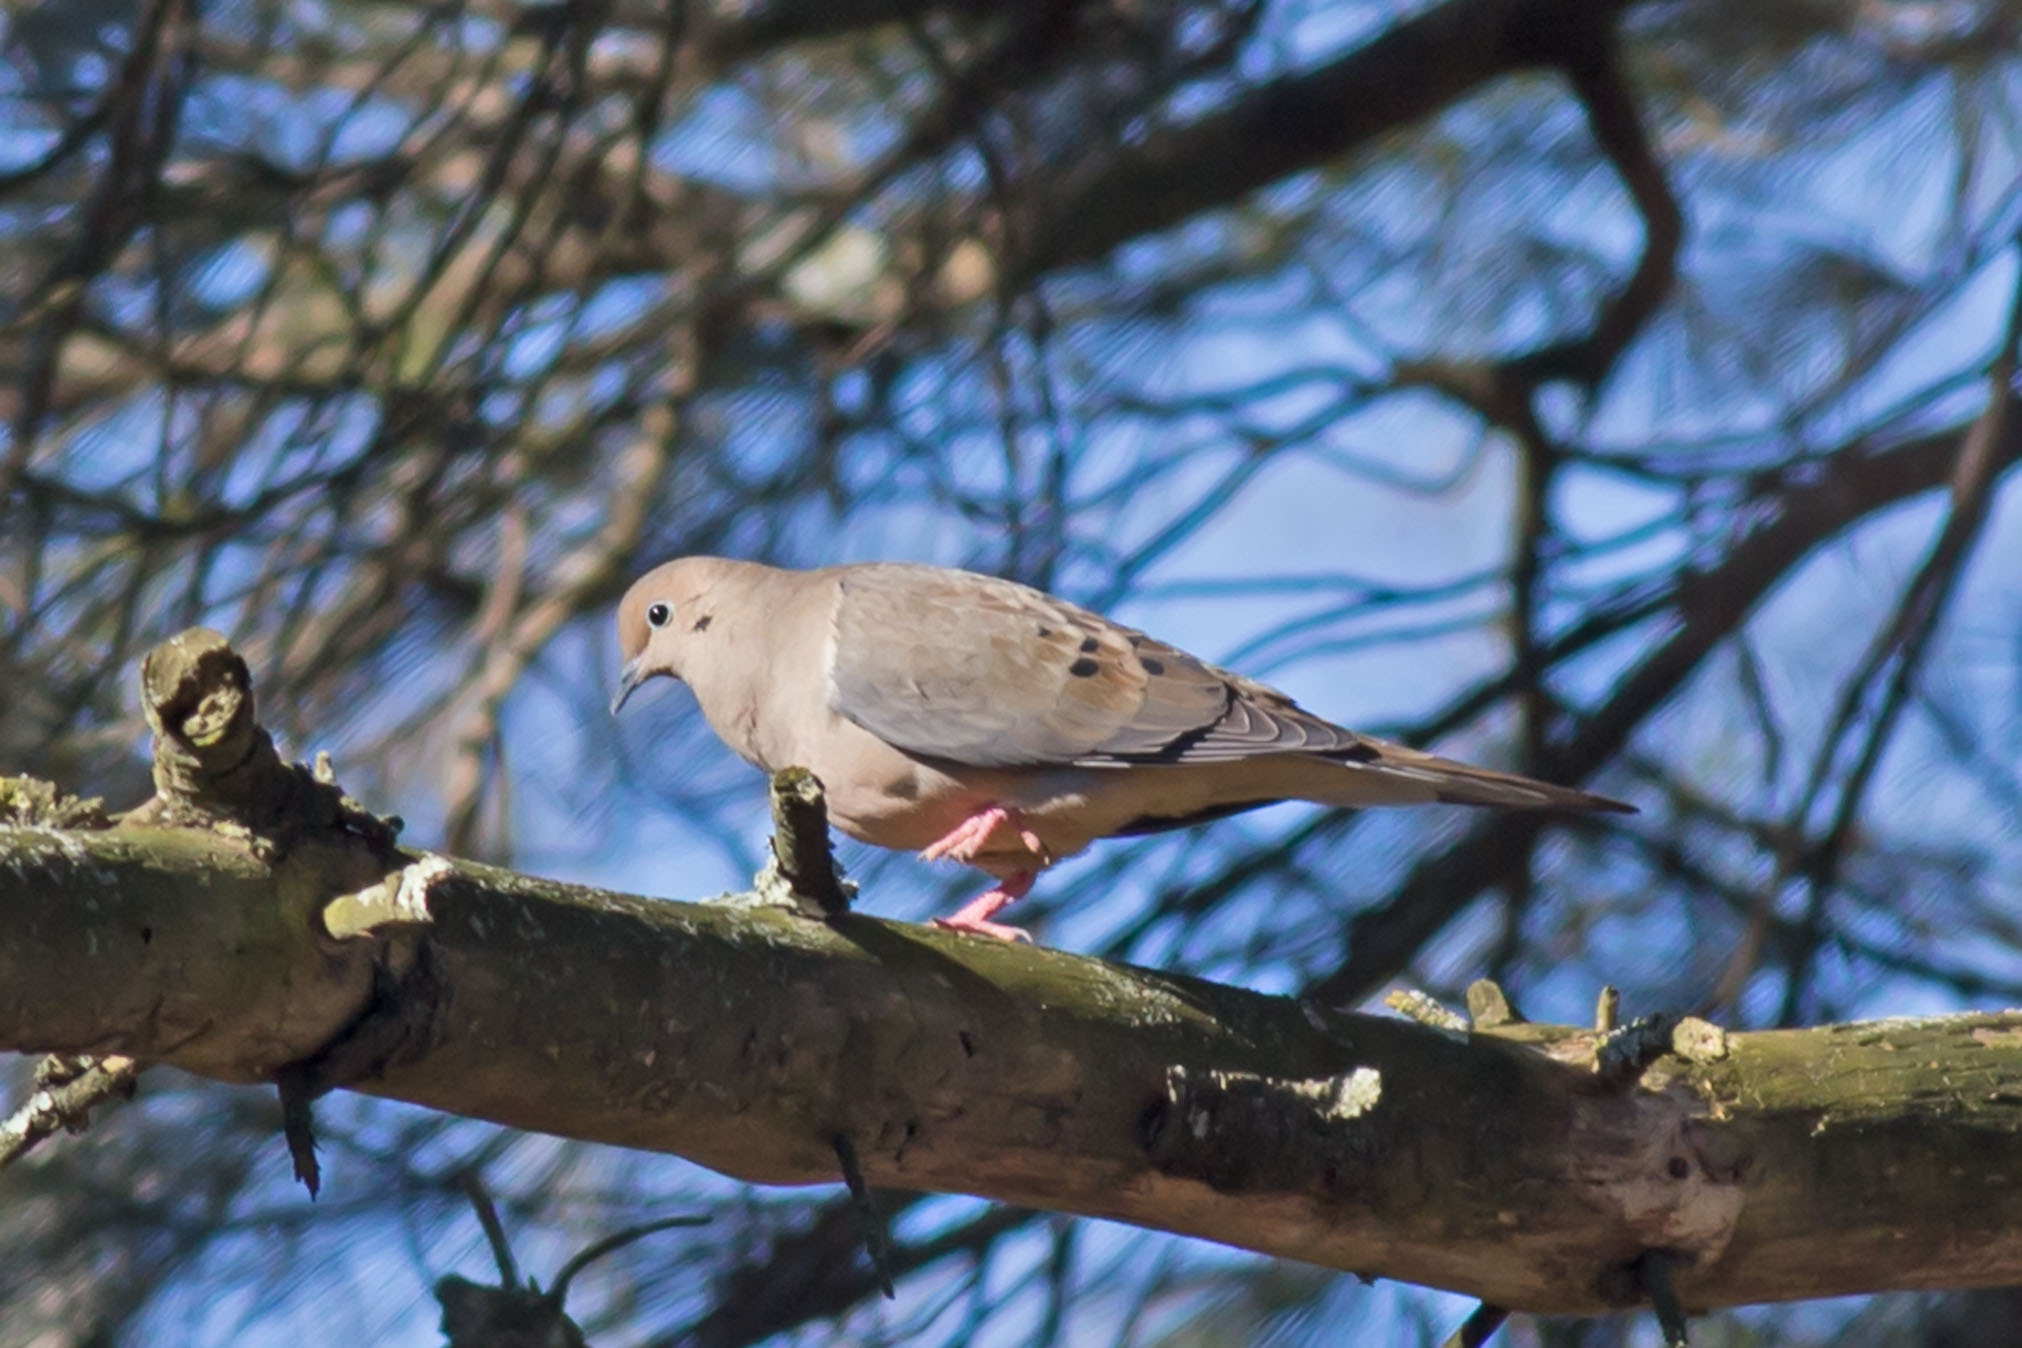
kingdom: Animalia
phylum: Chordata
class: Aves
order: Columbiformes
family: Columbidae
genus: Zenaida
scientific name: Zenaida macroura
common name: Mourning dove
